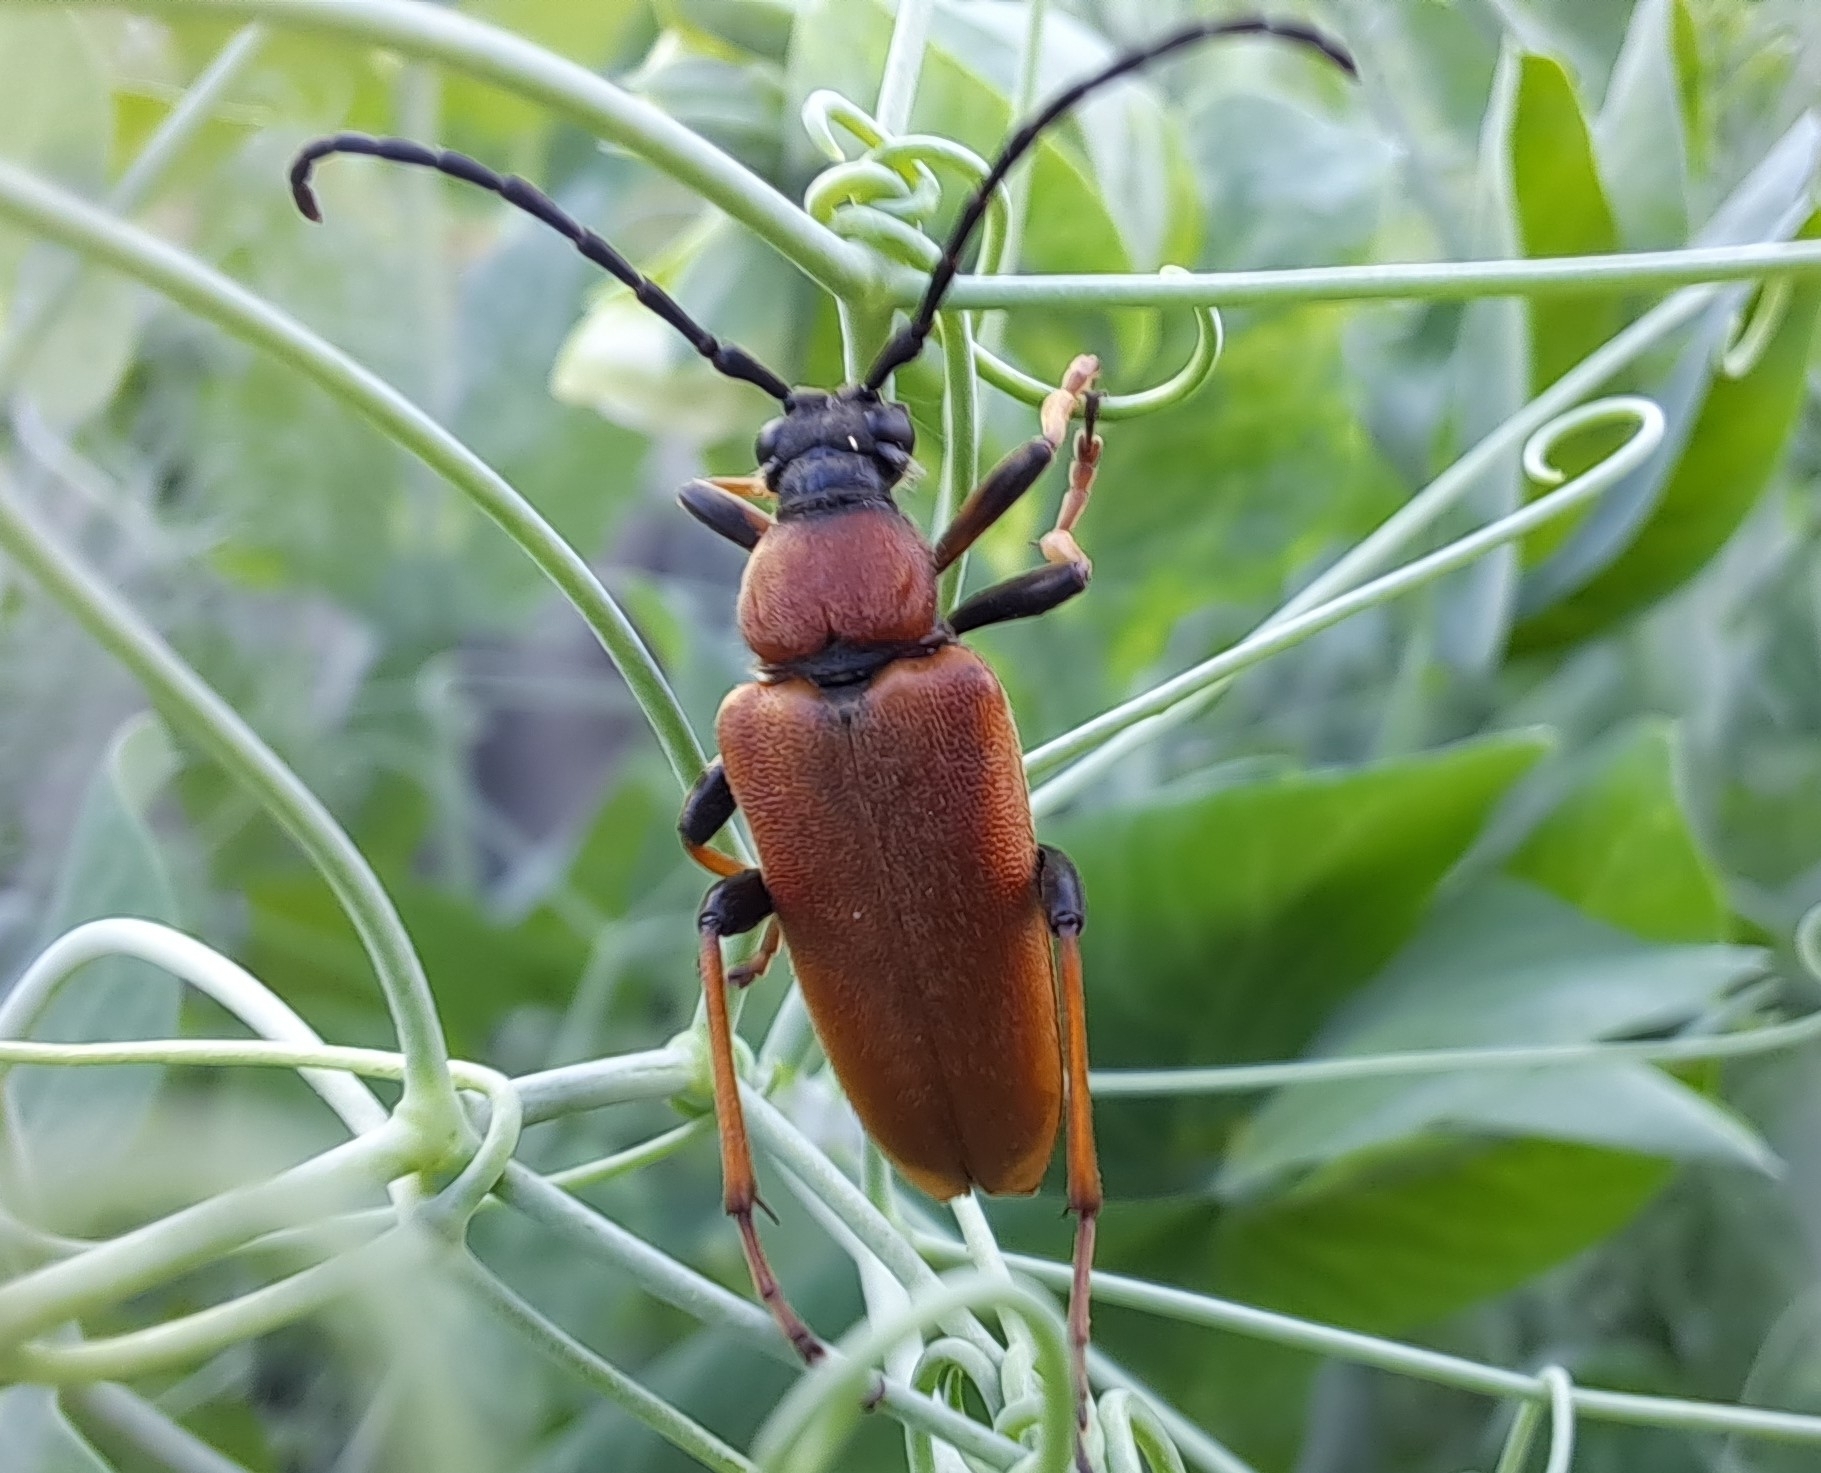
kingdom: Animalia
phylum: Arthropoda
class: Insecta
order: Coleoptera
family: Cerambycidae
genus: Stictoleptura
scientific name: Stictoleptura rubra
